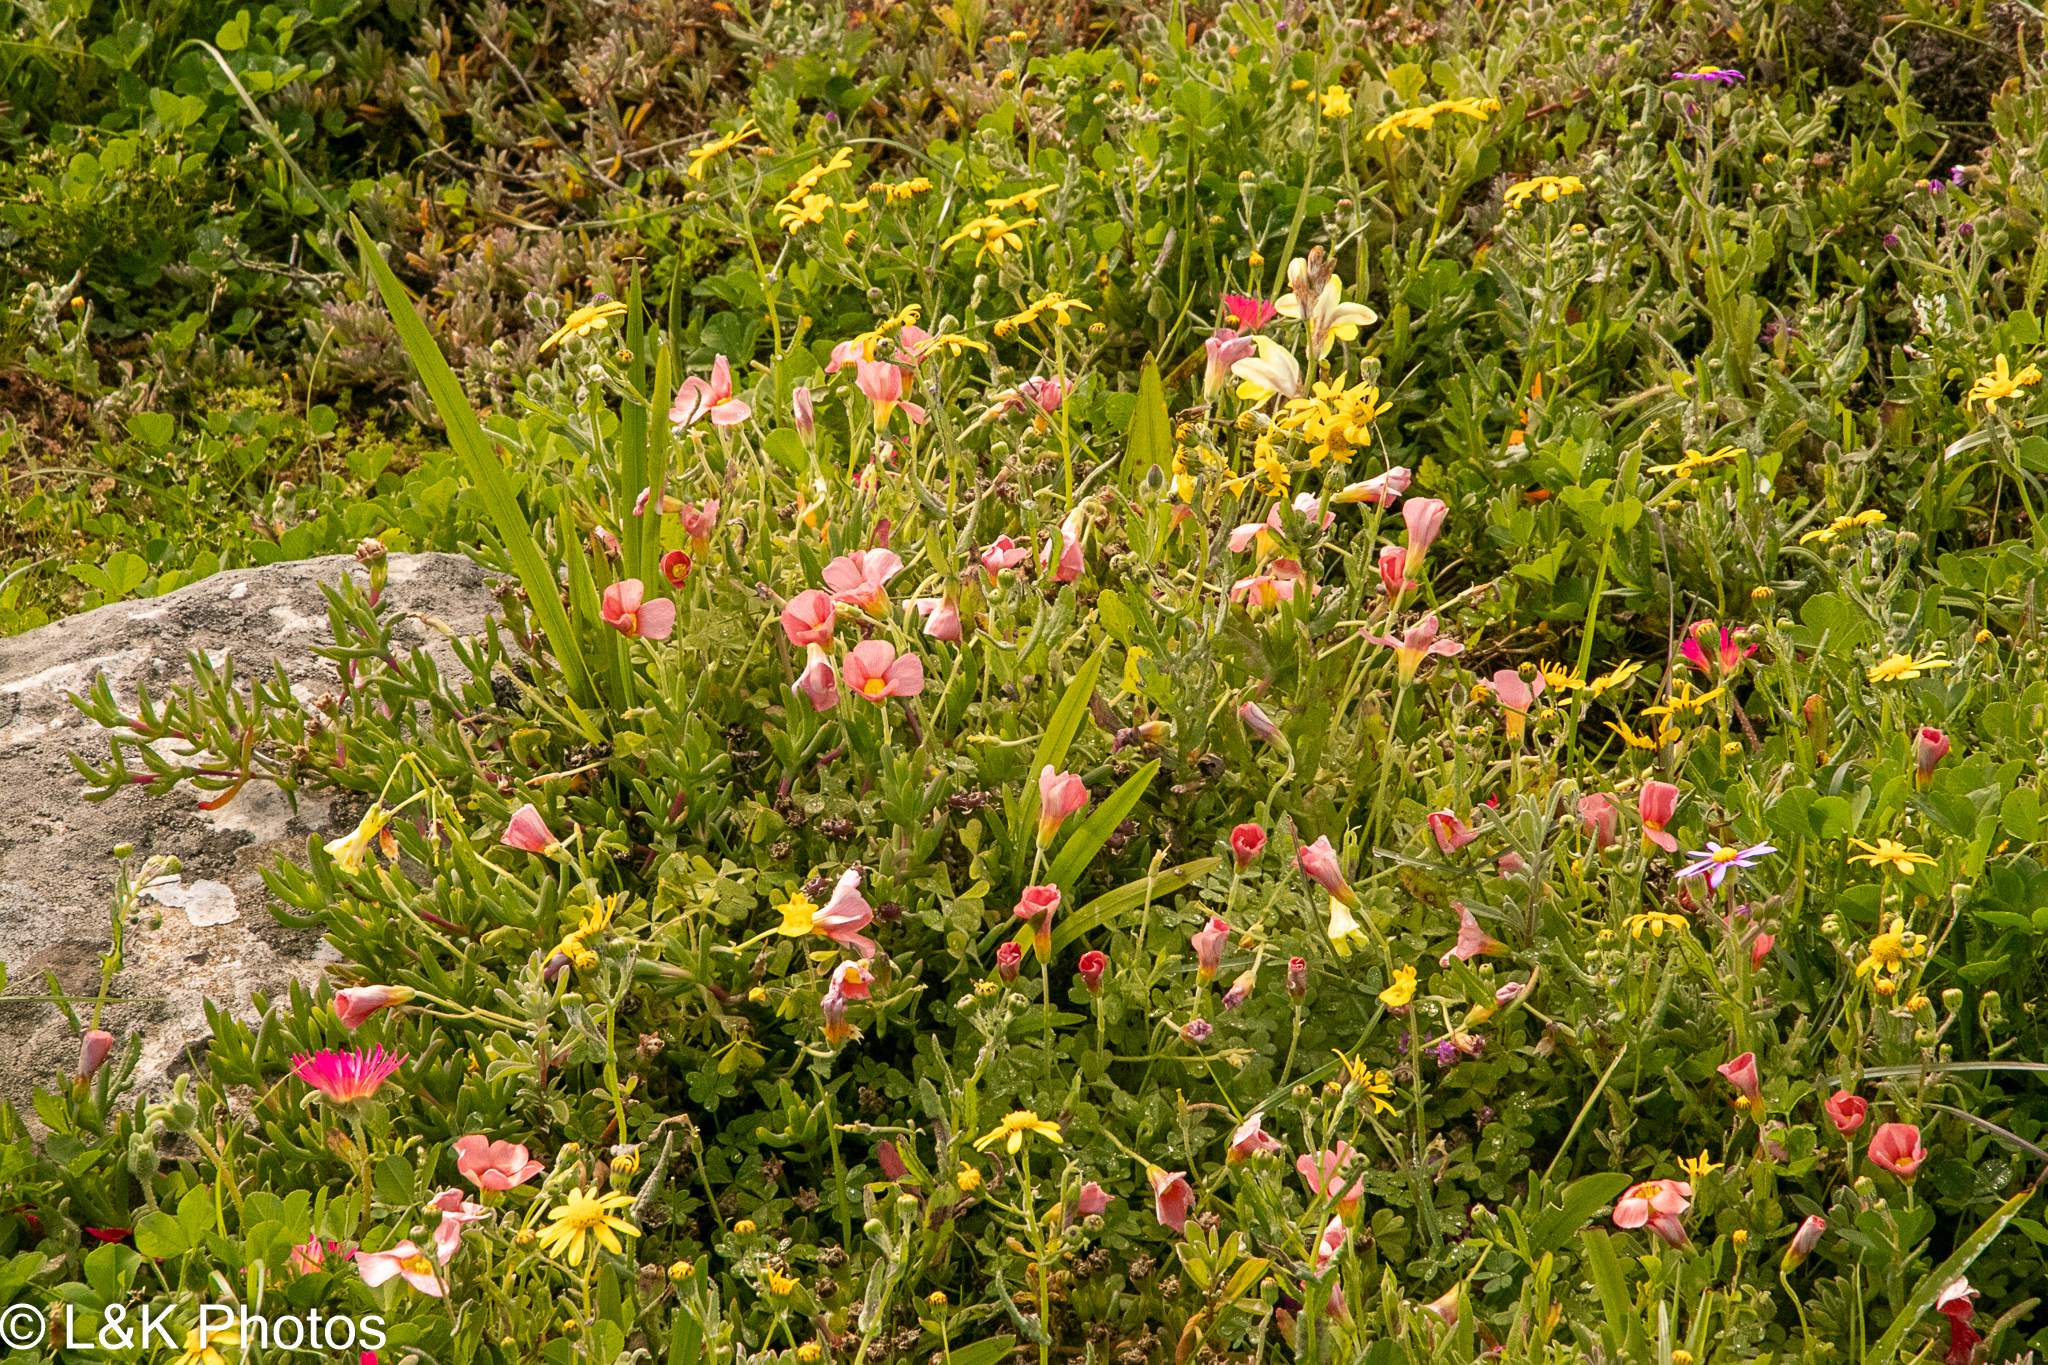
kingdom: Plantae
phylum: Tracheophyta
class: Magnoliopsida
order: Oxalidales
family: Oxalidaceae
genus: Oxalis
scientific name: Oxalis obtusa
